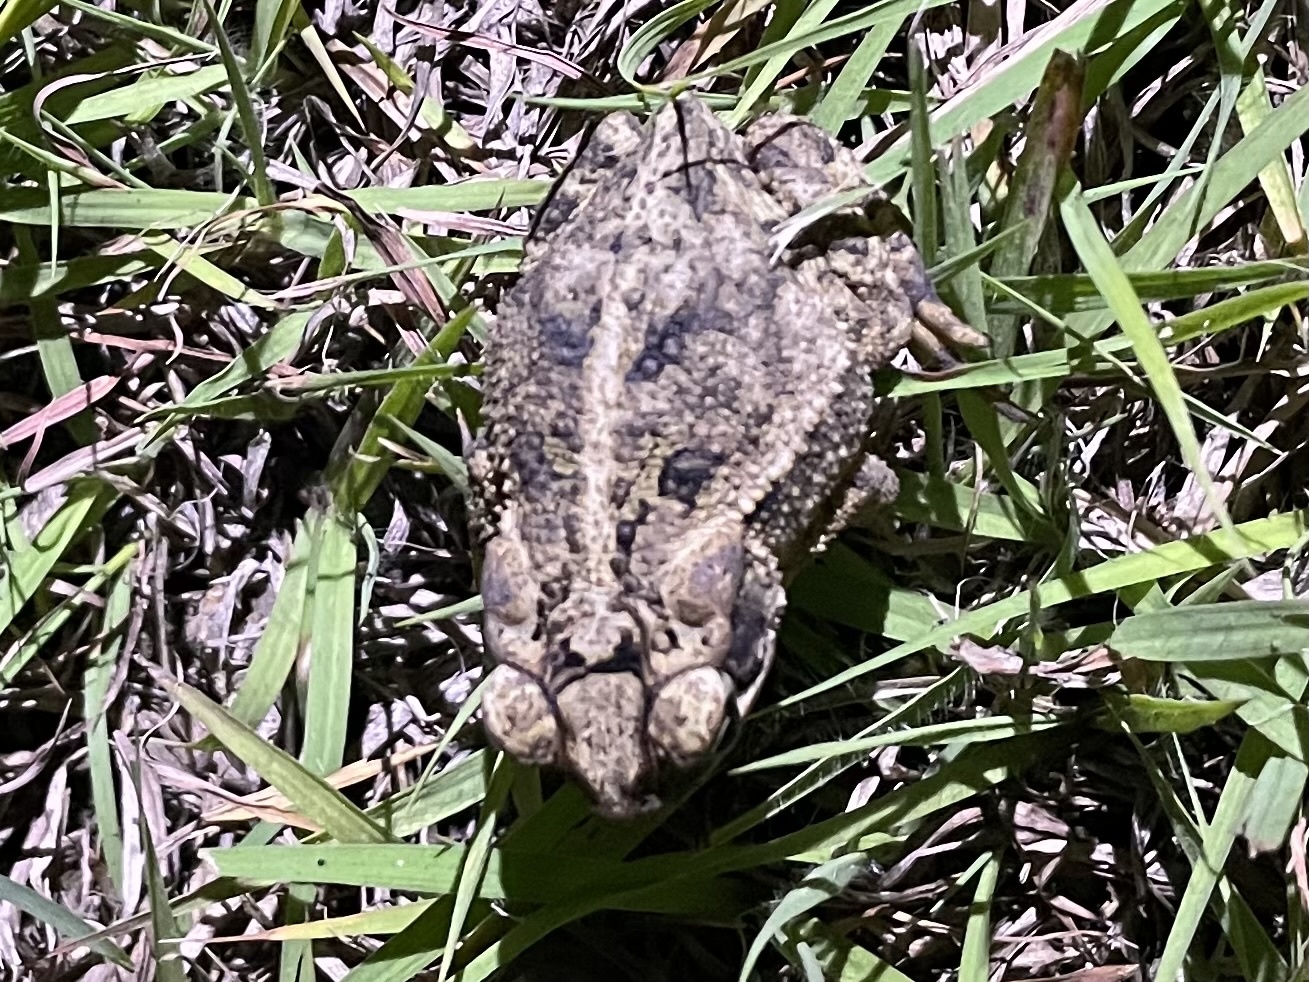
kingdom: Animalia
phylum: Chordata
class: Amphibia
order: Anura
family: Bufonidae
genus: Incilius
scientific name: Incilius nebulifer
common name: Gulf coast toad
